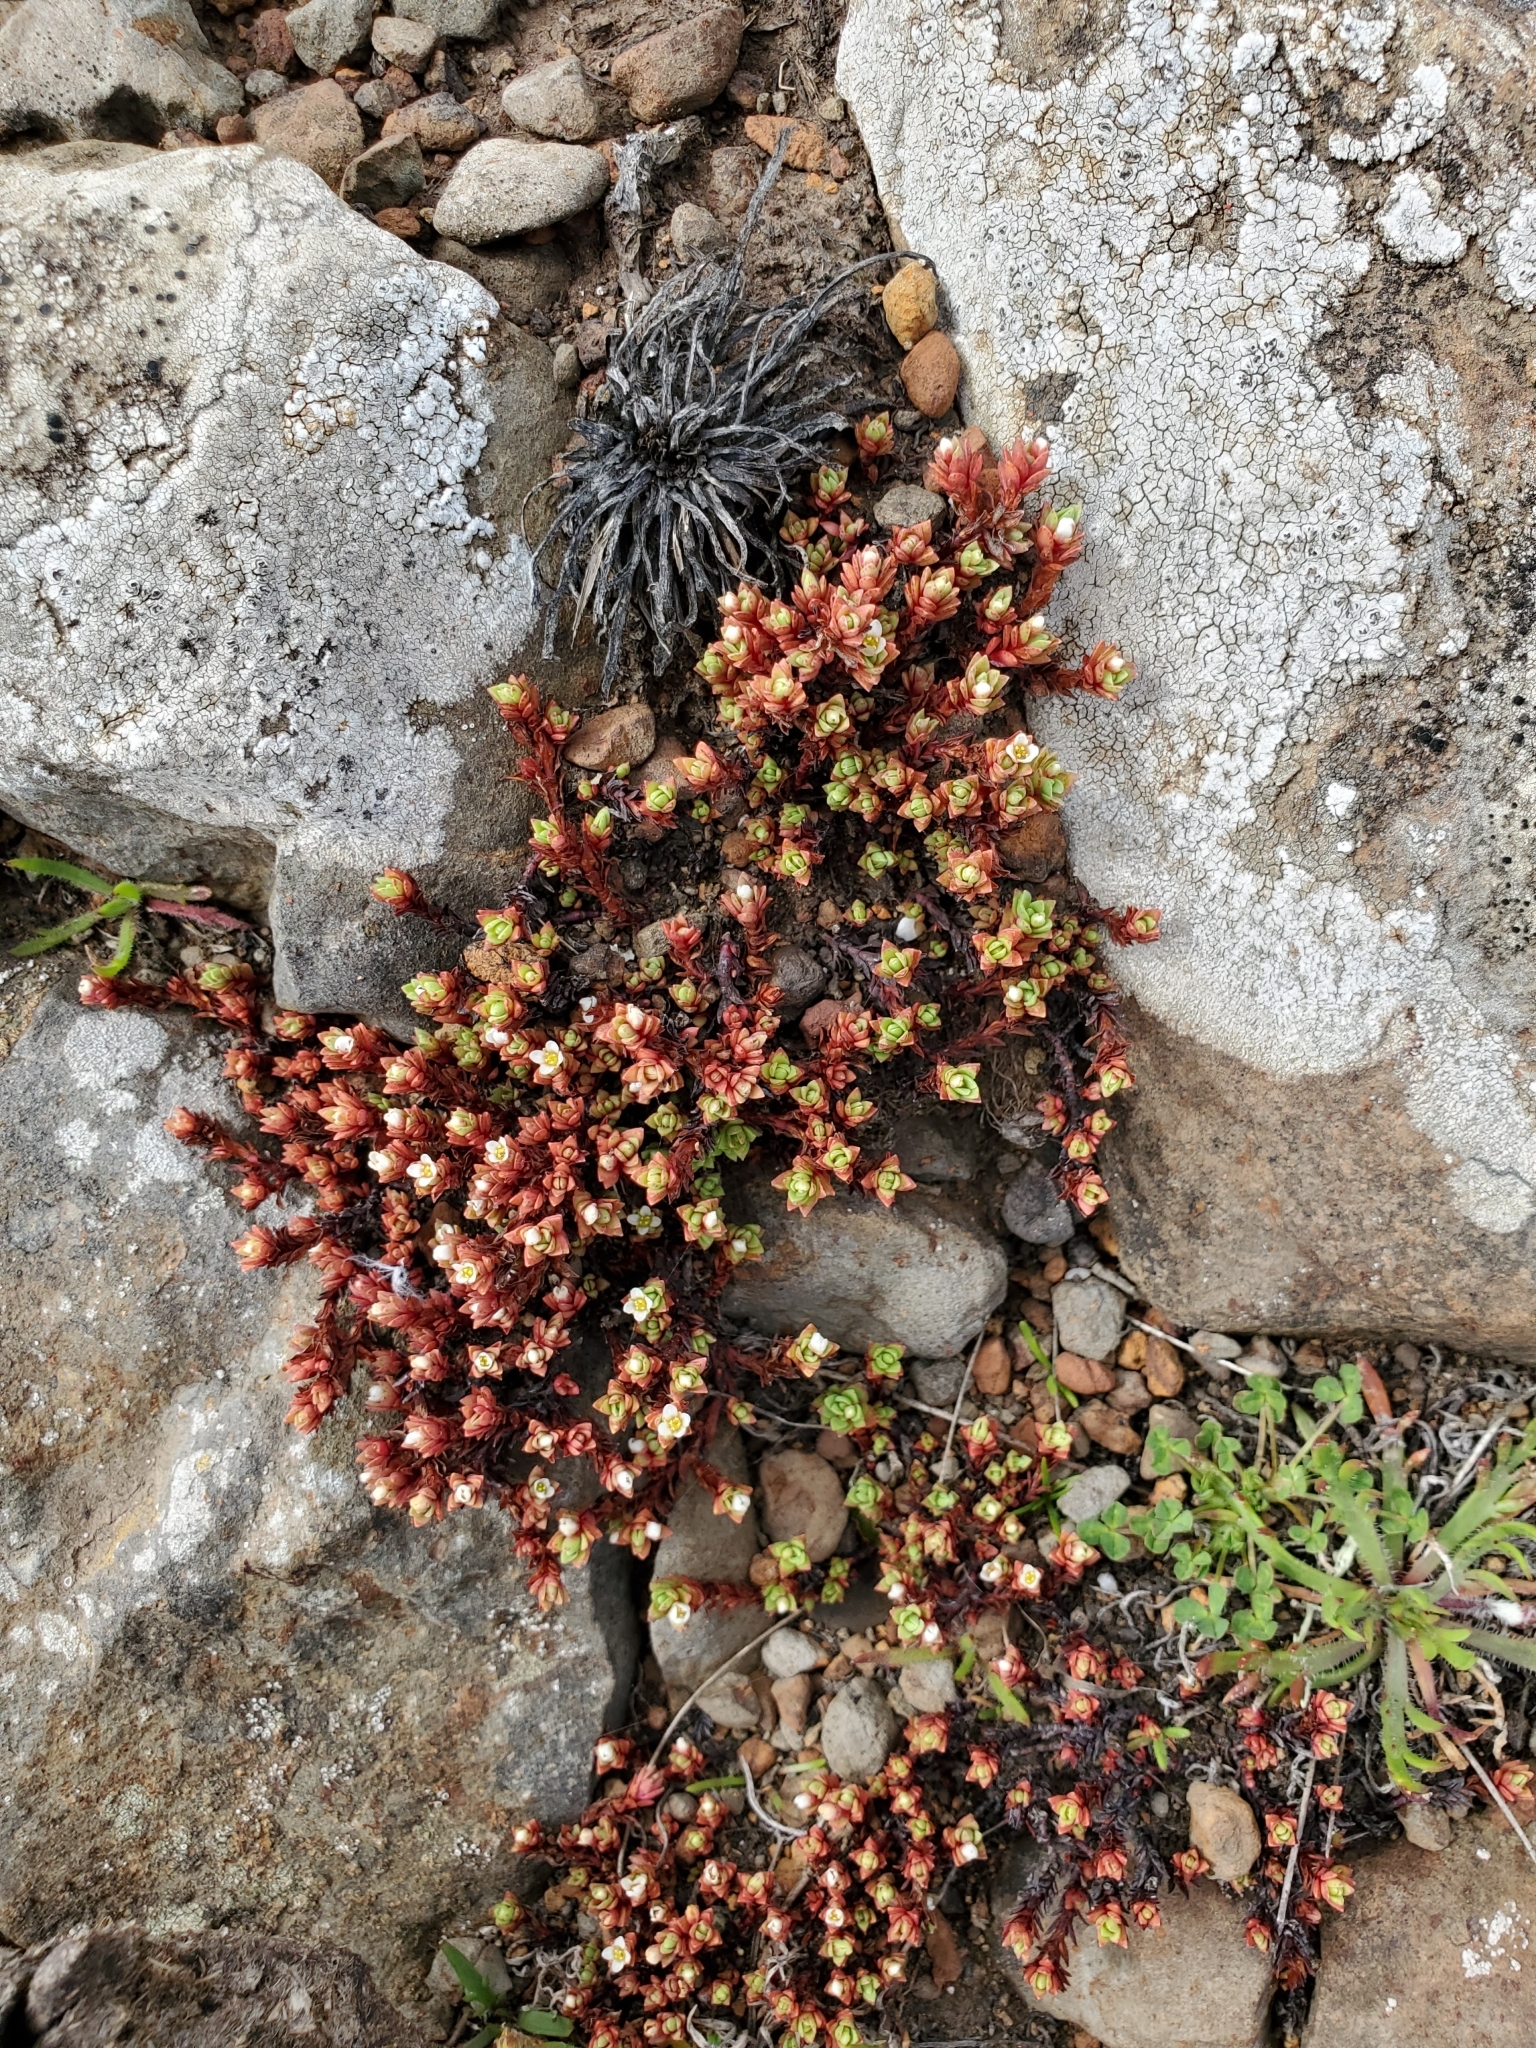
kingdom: Plantae
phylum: Tracheophyta
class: Magnoliopsida
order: Saxifragales
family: Crassulaceae
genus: Crassula
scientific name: Crassula moschata
